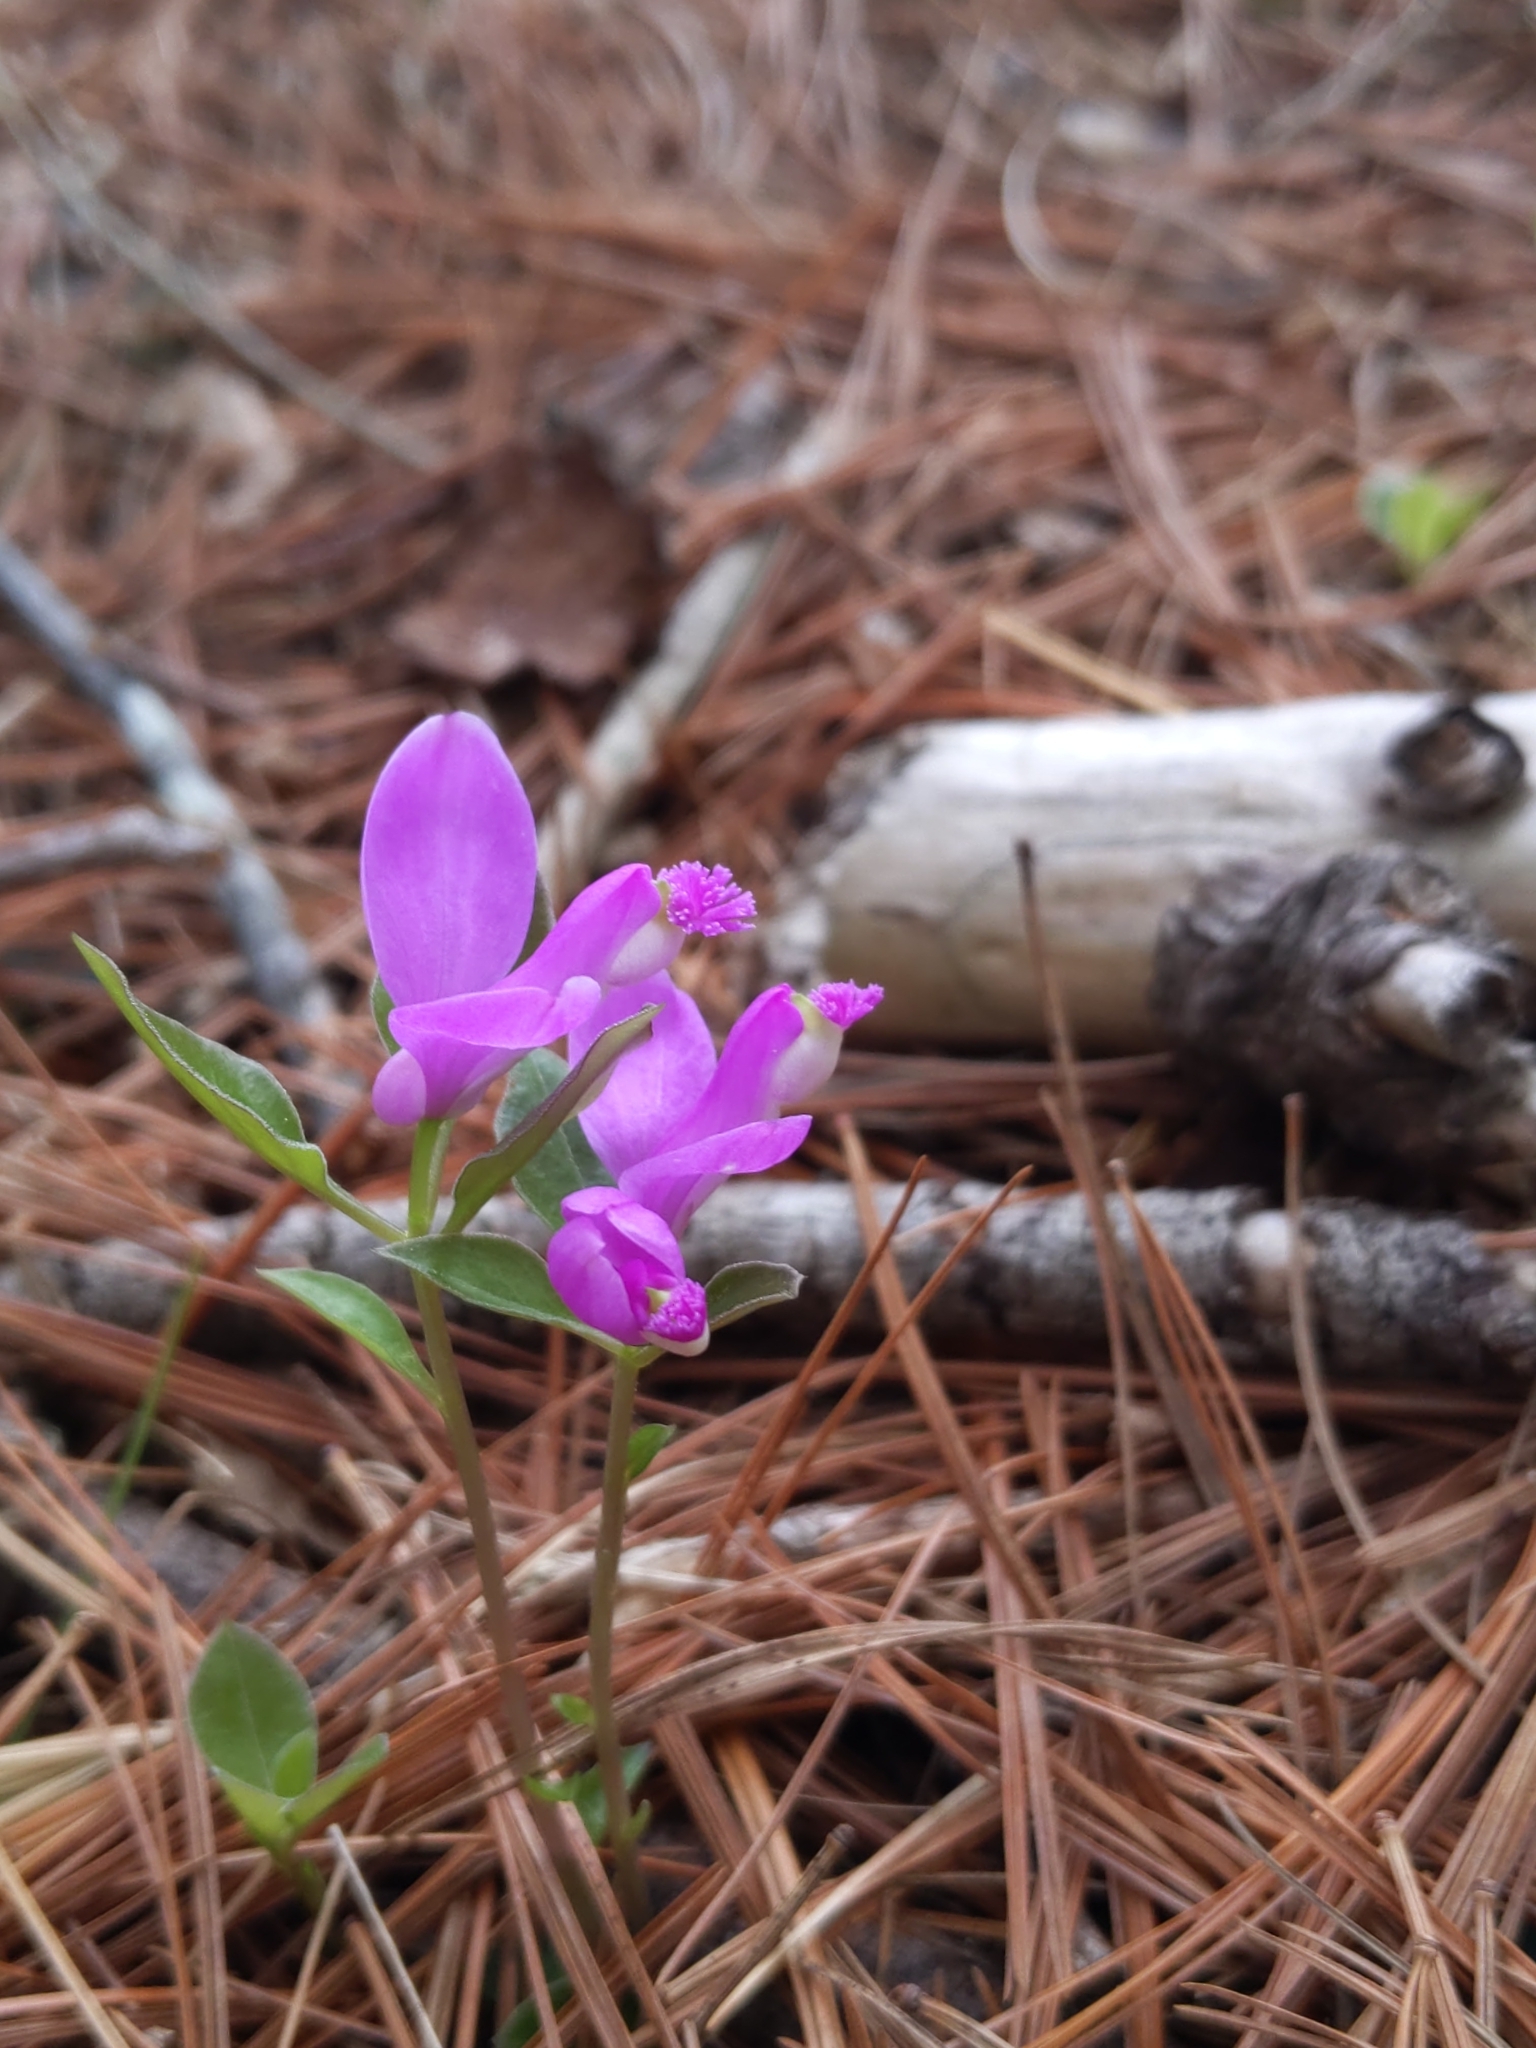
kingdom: Plantae
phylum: Tracheophyta
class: Magnoliopsida
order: Fabales
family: Polygalaceae
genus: Polygaloides
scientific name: Polygaloides paucifolia
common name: Bird-on-the-wing
